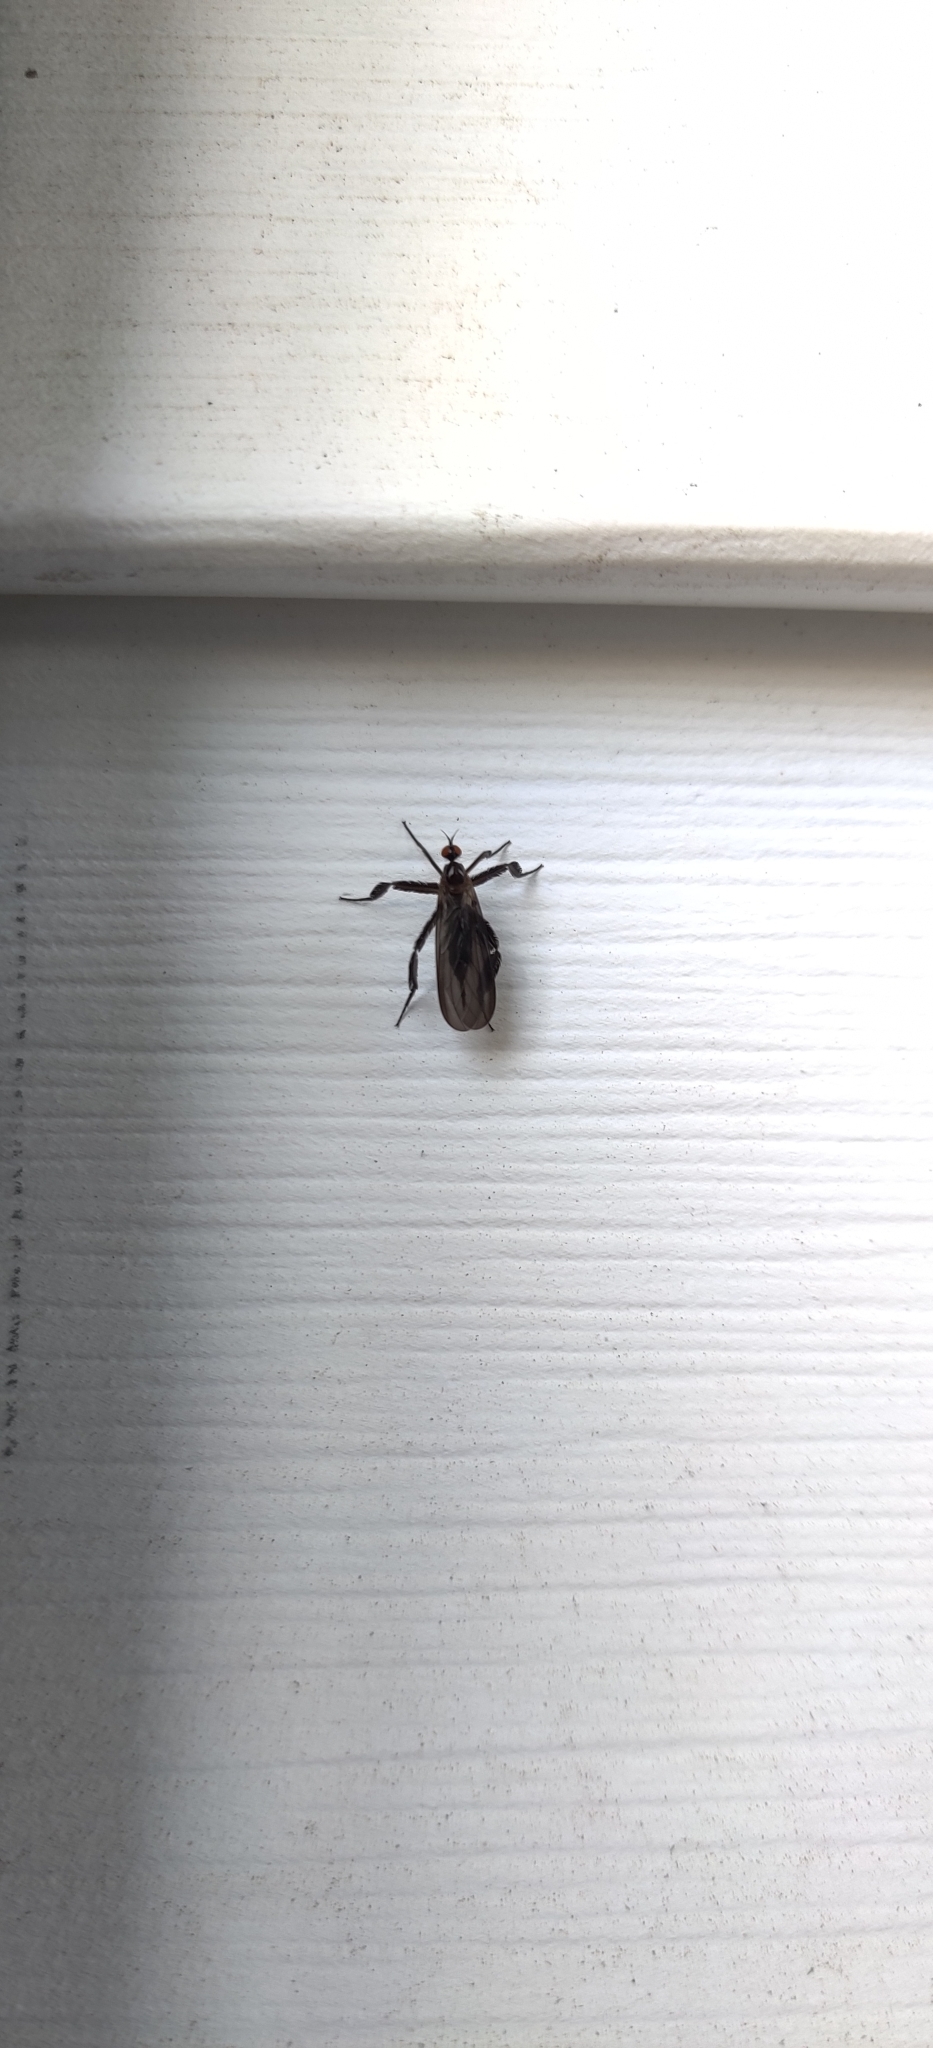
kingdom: Animalia
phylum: Arthropoda
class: Insecta
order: Diptera
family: Empididae
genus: Rhamphomyia
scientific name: Rhamphomyia longicauda
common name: Long-tailed dance fly
